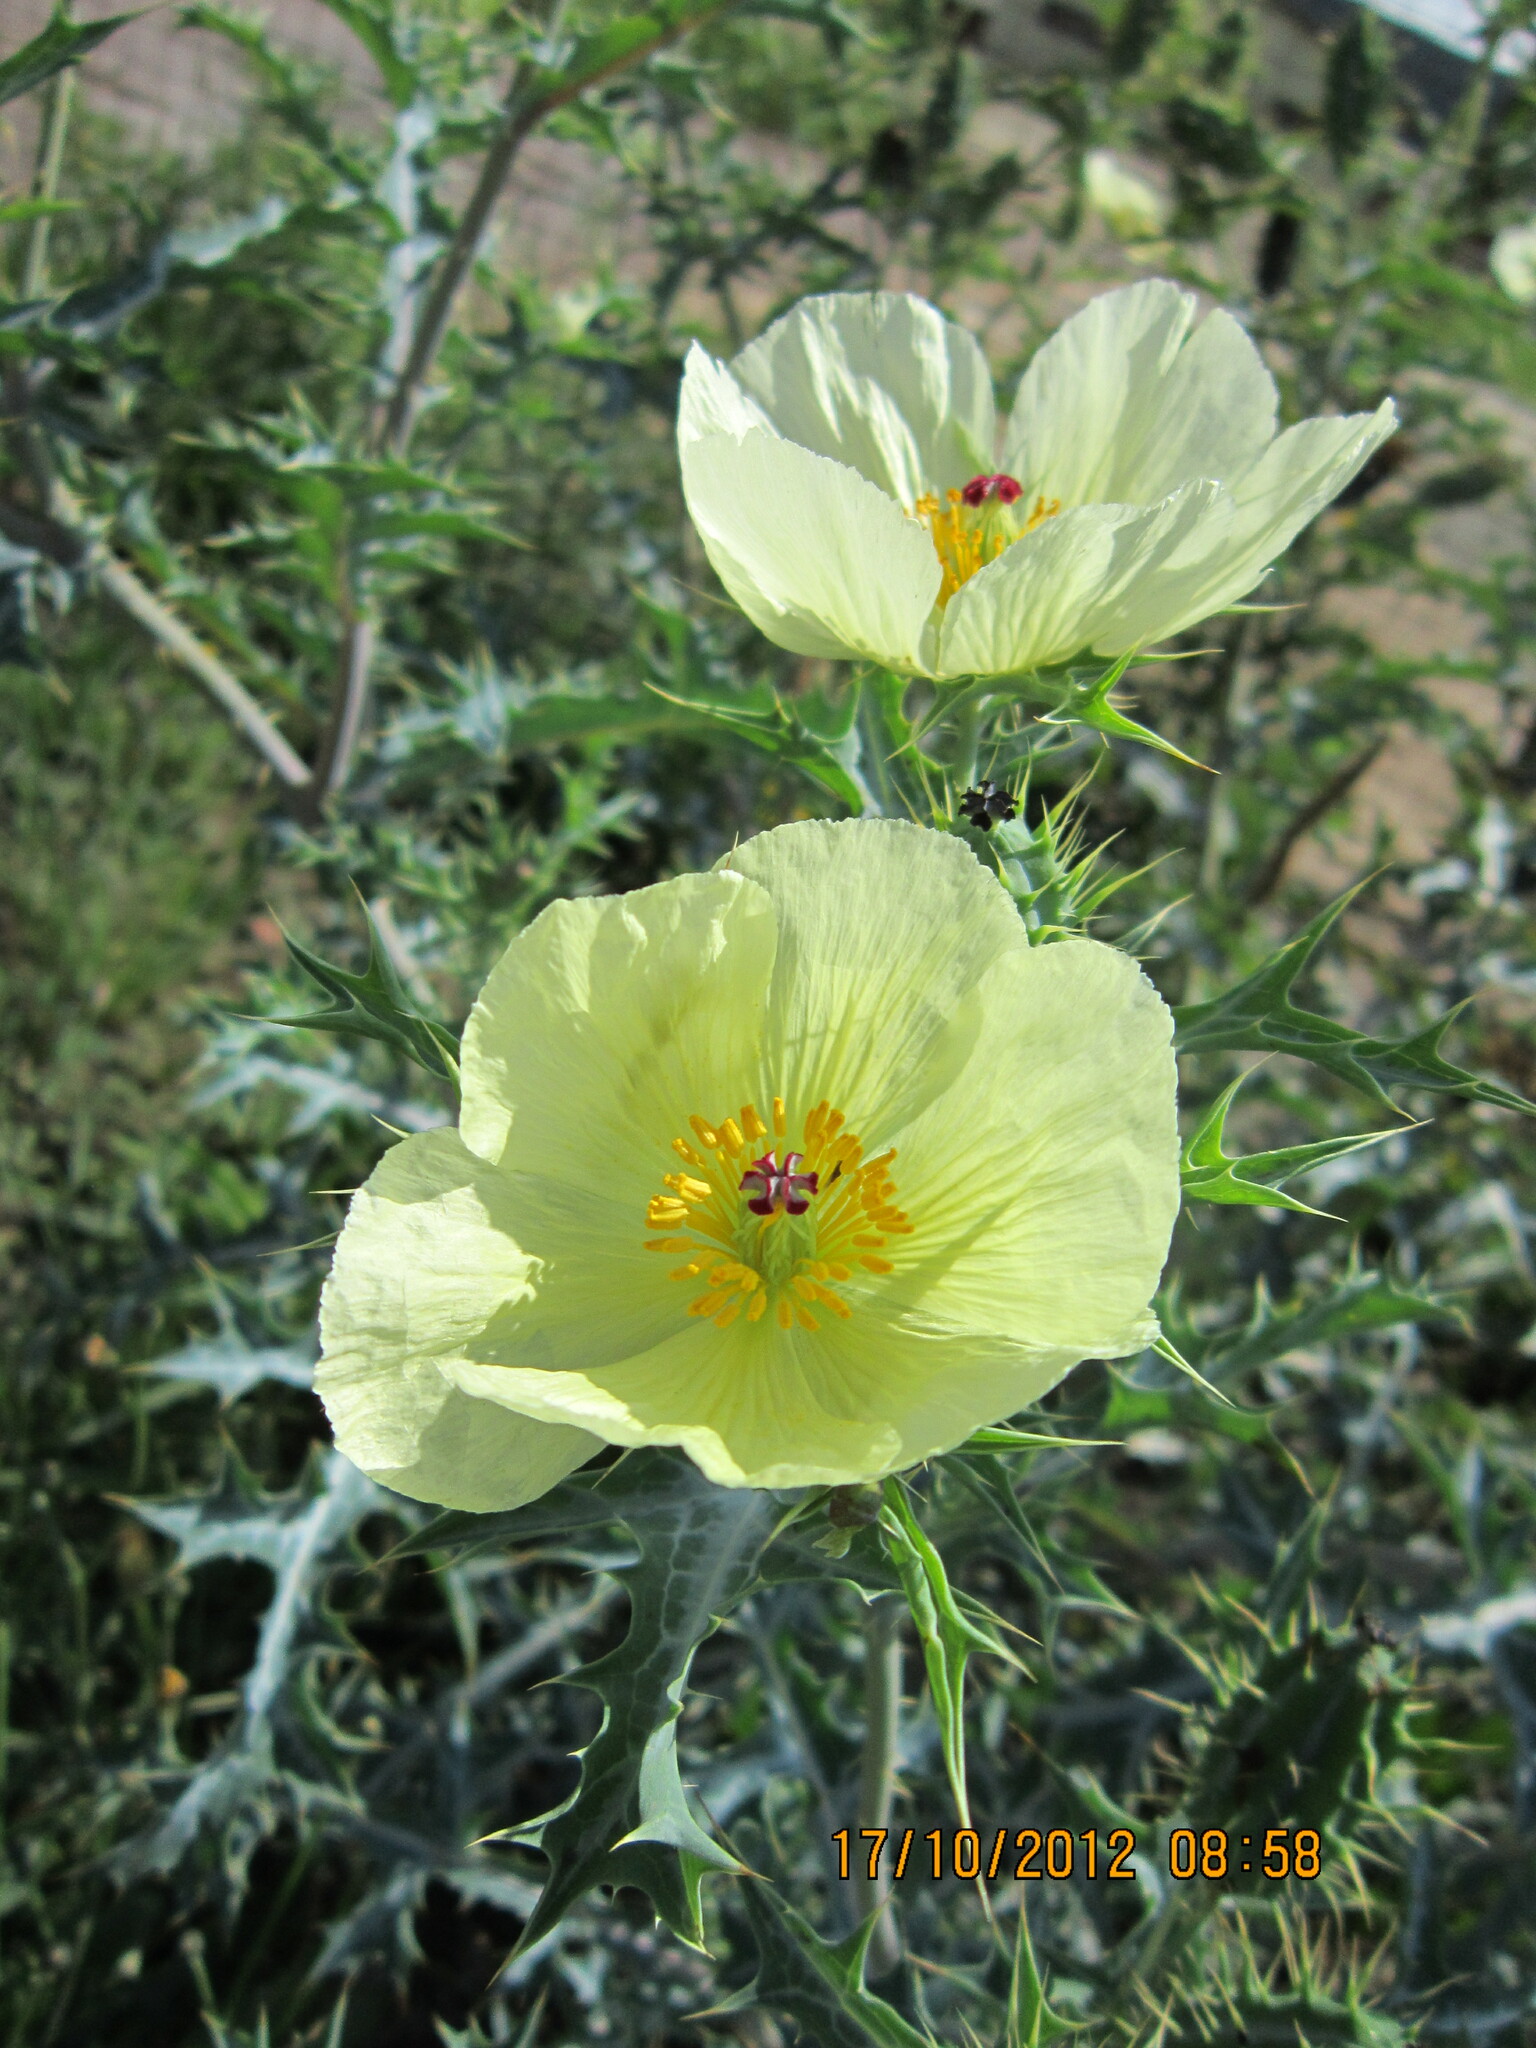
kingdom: Plantae
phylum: Tracheophyta
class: Magnoliopsida
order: Ranunculales
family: Papaveraceae
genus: Argemone
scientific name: Argemone ochroleuca
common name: White-flower mexican-poppy
